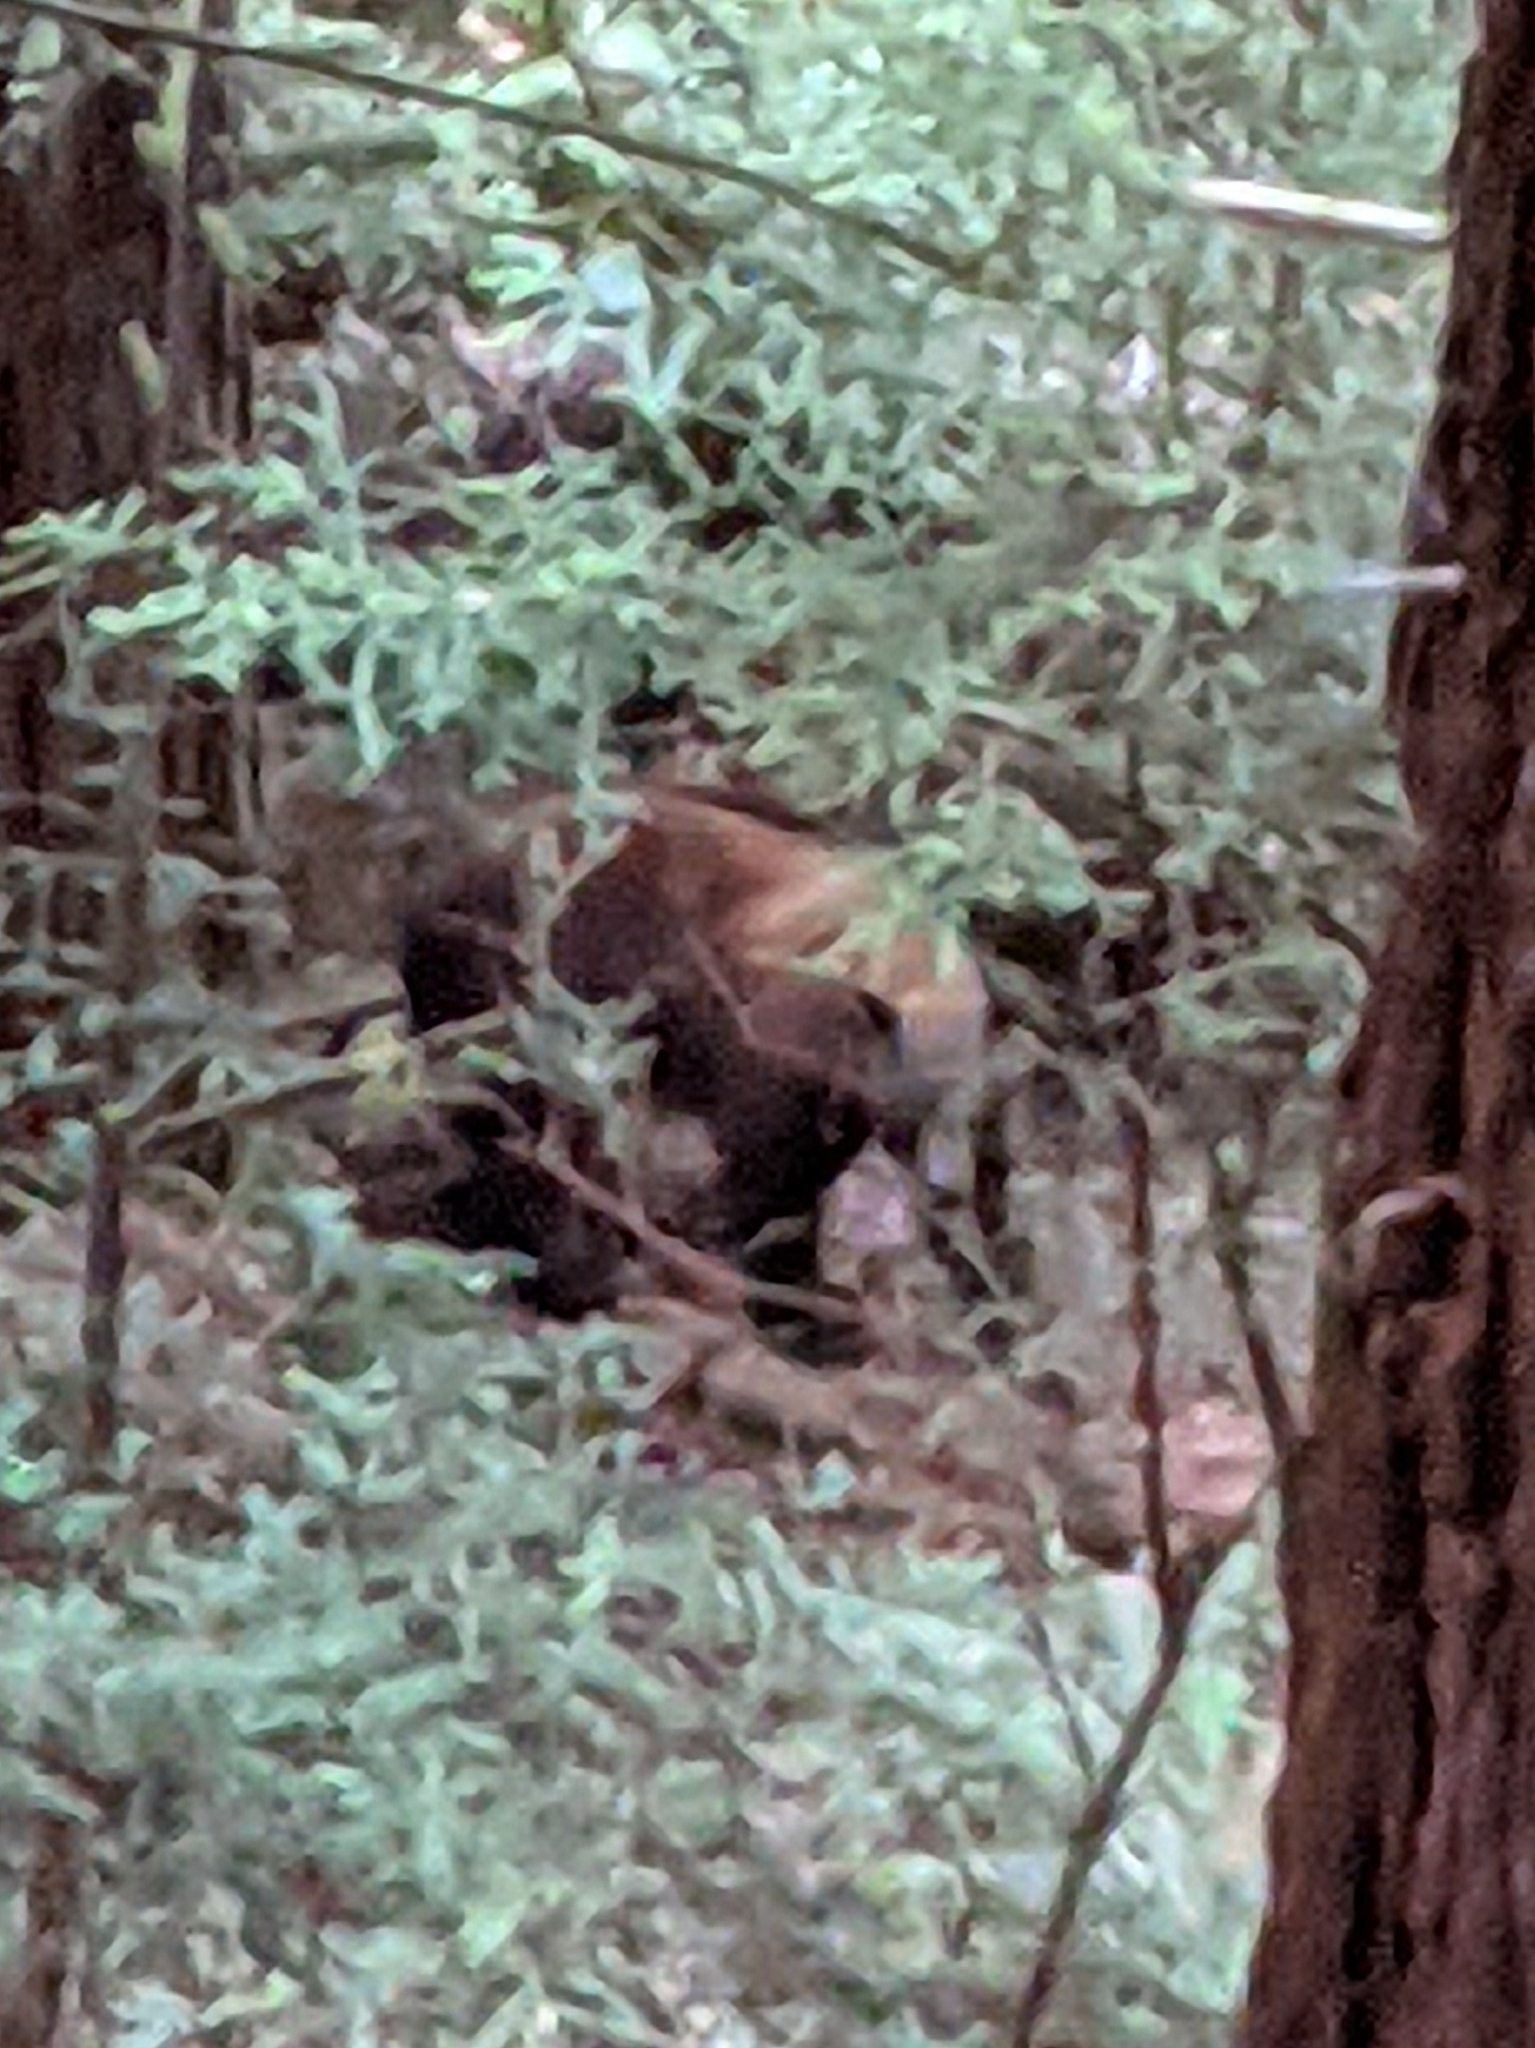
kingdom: Animalia
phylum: Chordata
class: Mammalia
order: Carnivora
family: Ursidae
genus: Ursus
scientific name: Ursus americanus
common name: American black bear
